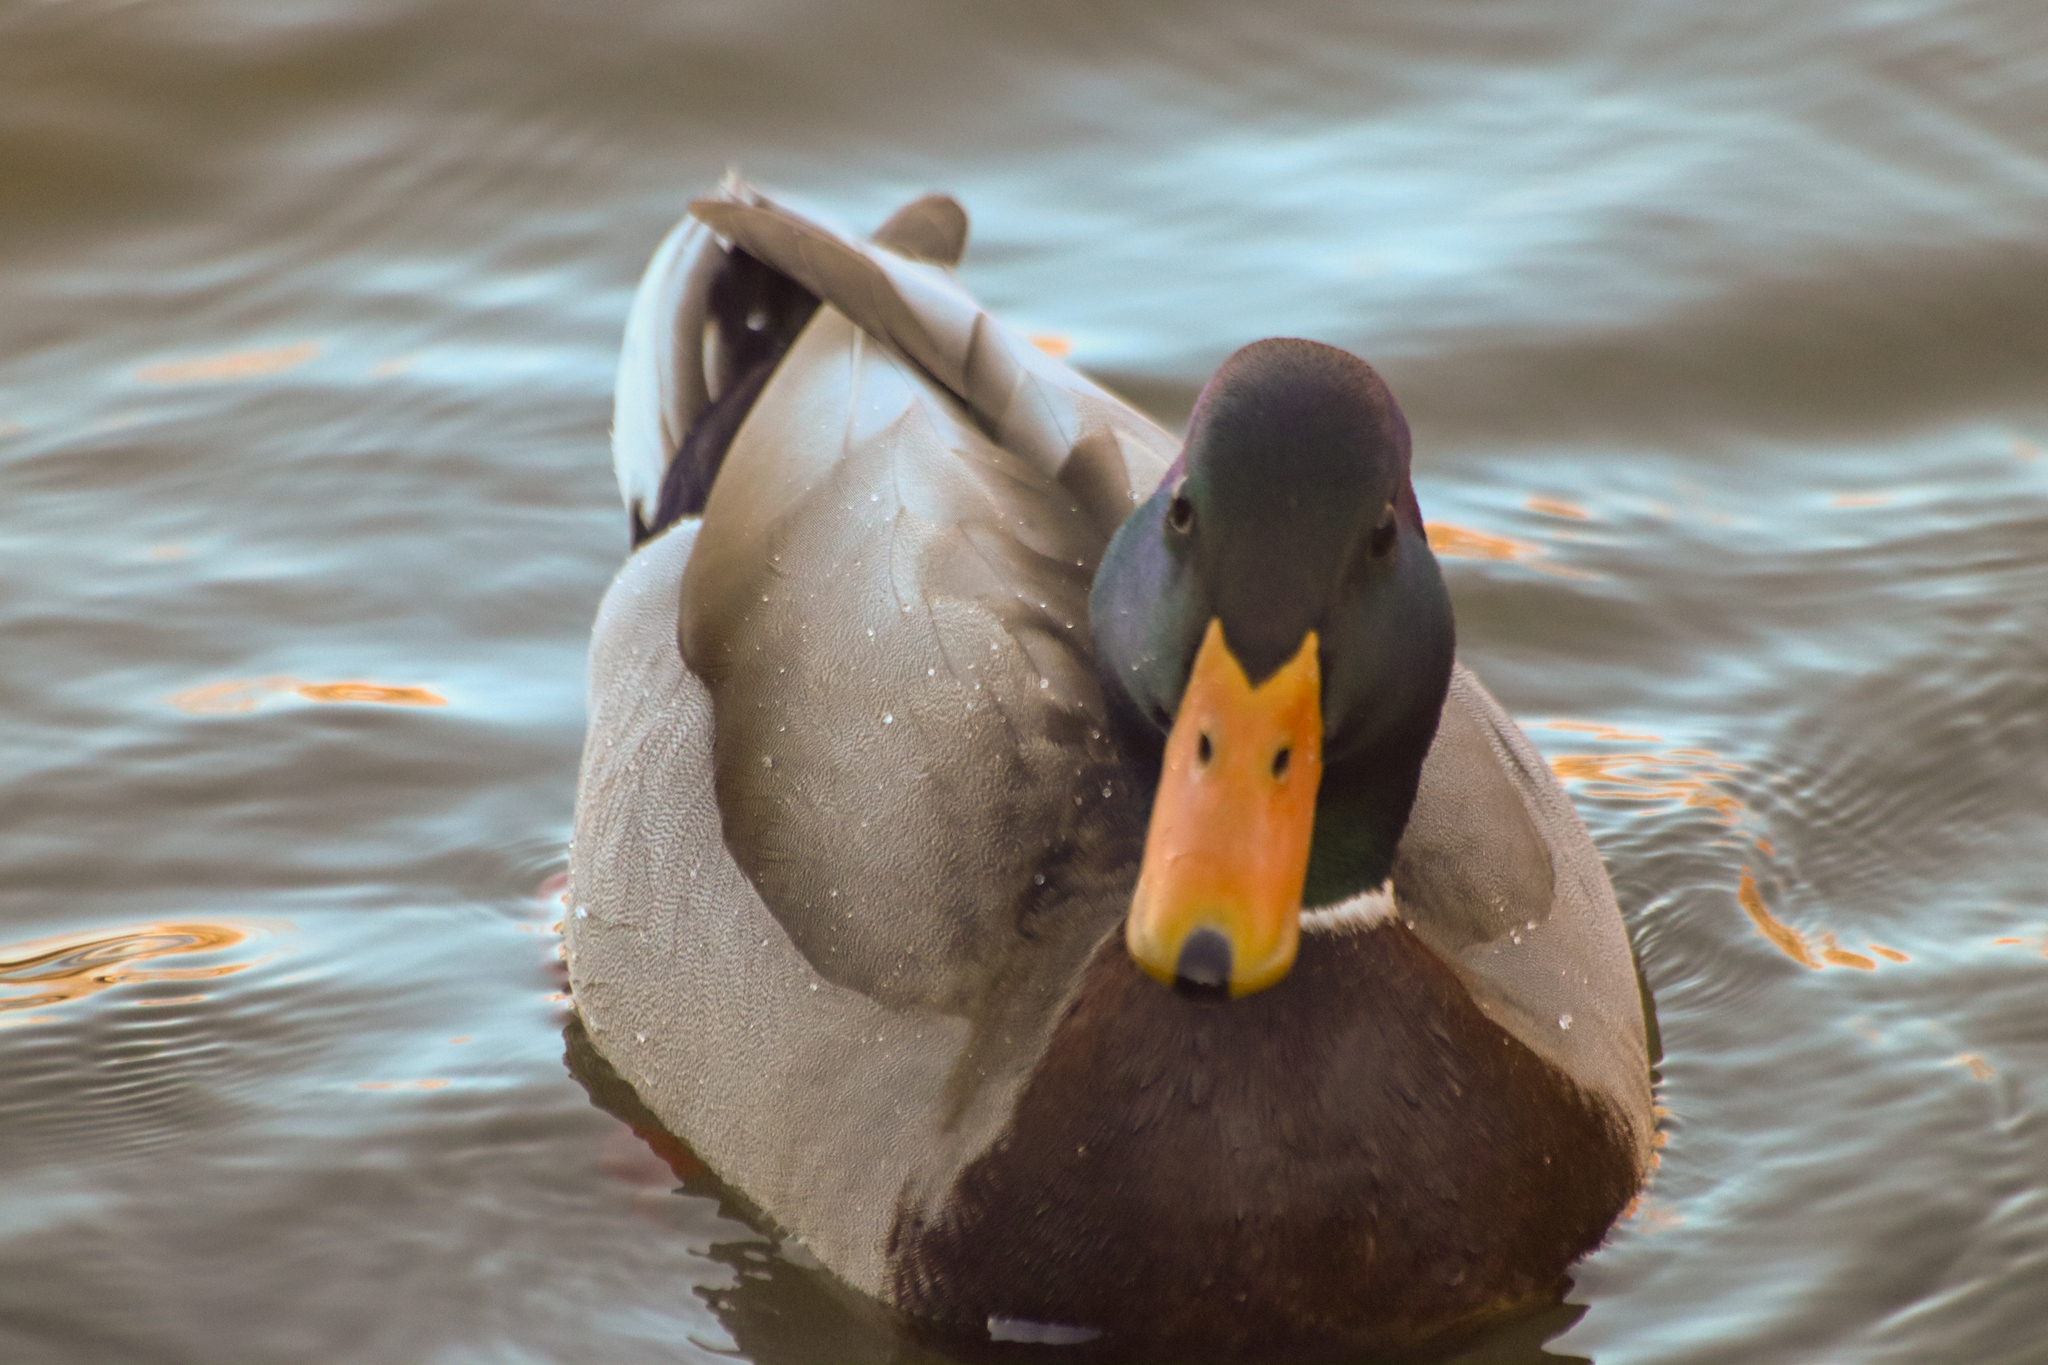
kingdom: Animalia
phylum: Chordata
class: Aves
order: Anseriformes
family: Anatidae
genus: Anas
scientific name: Anas platyrhynchos
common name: Mallard
